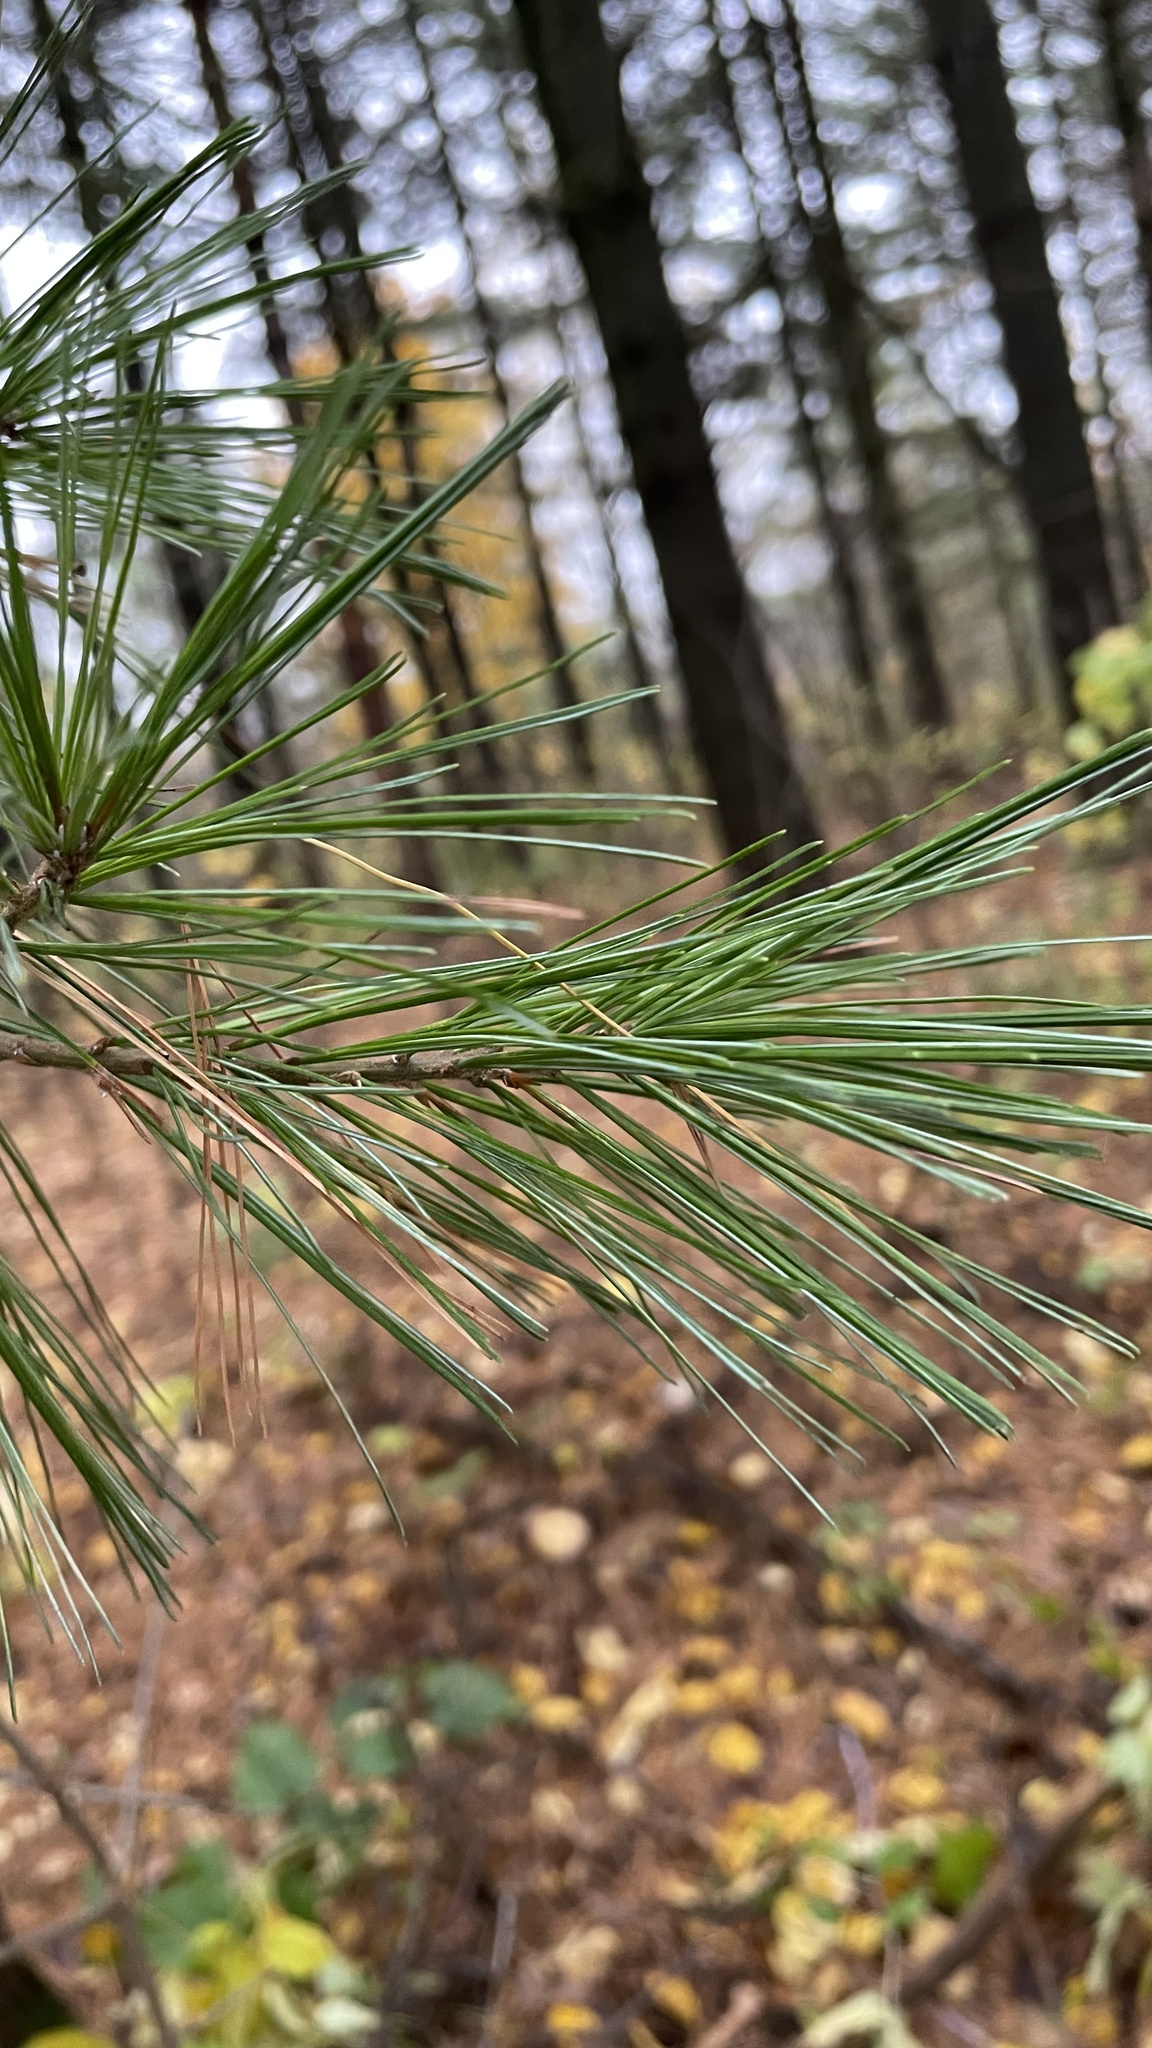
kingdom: Plantae
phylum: Tracheophyta
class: Pinopsida
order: Pinales
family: Pinaceae
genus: Pinus
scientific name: Pinus strobus
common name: Weymouth pine
